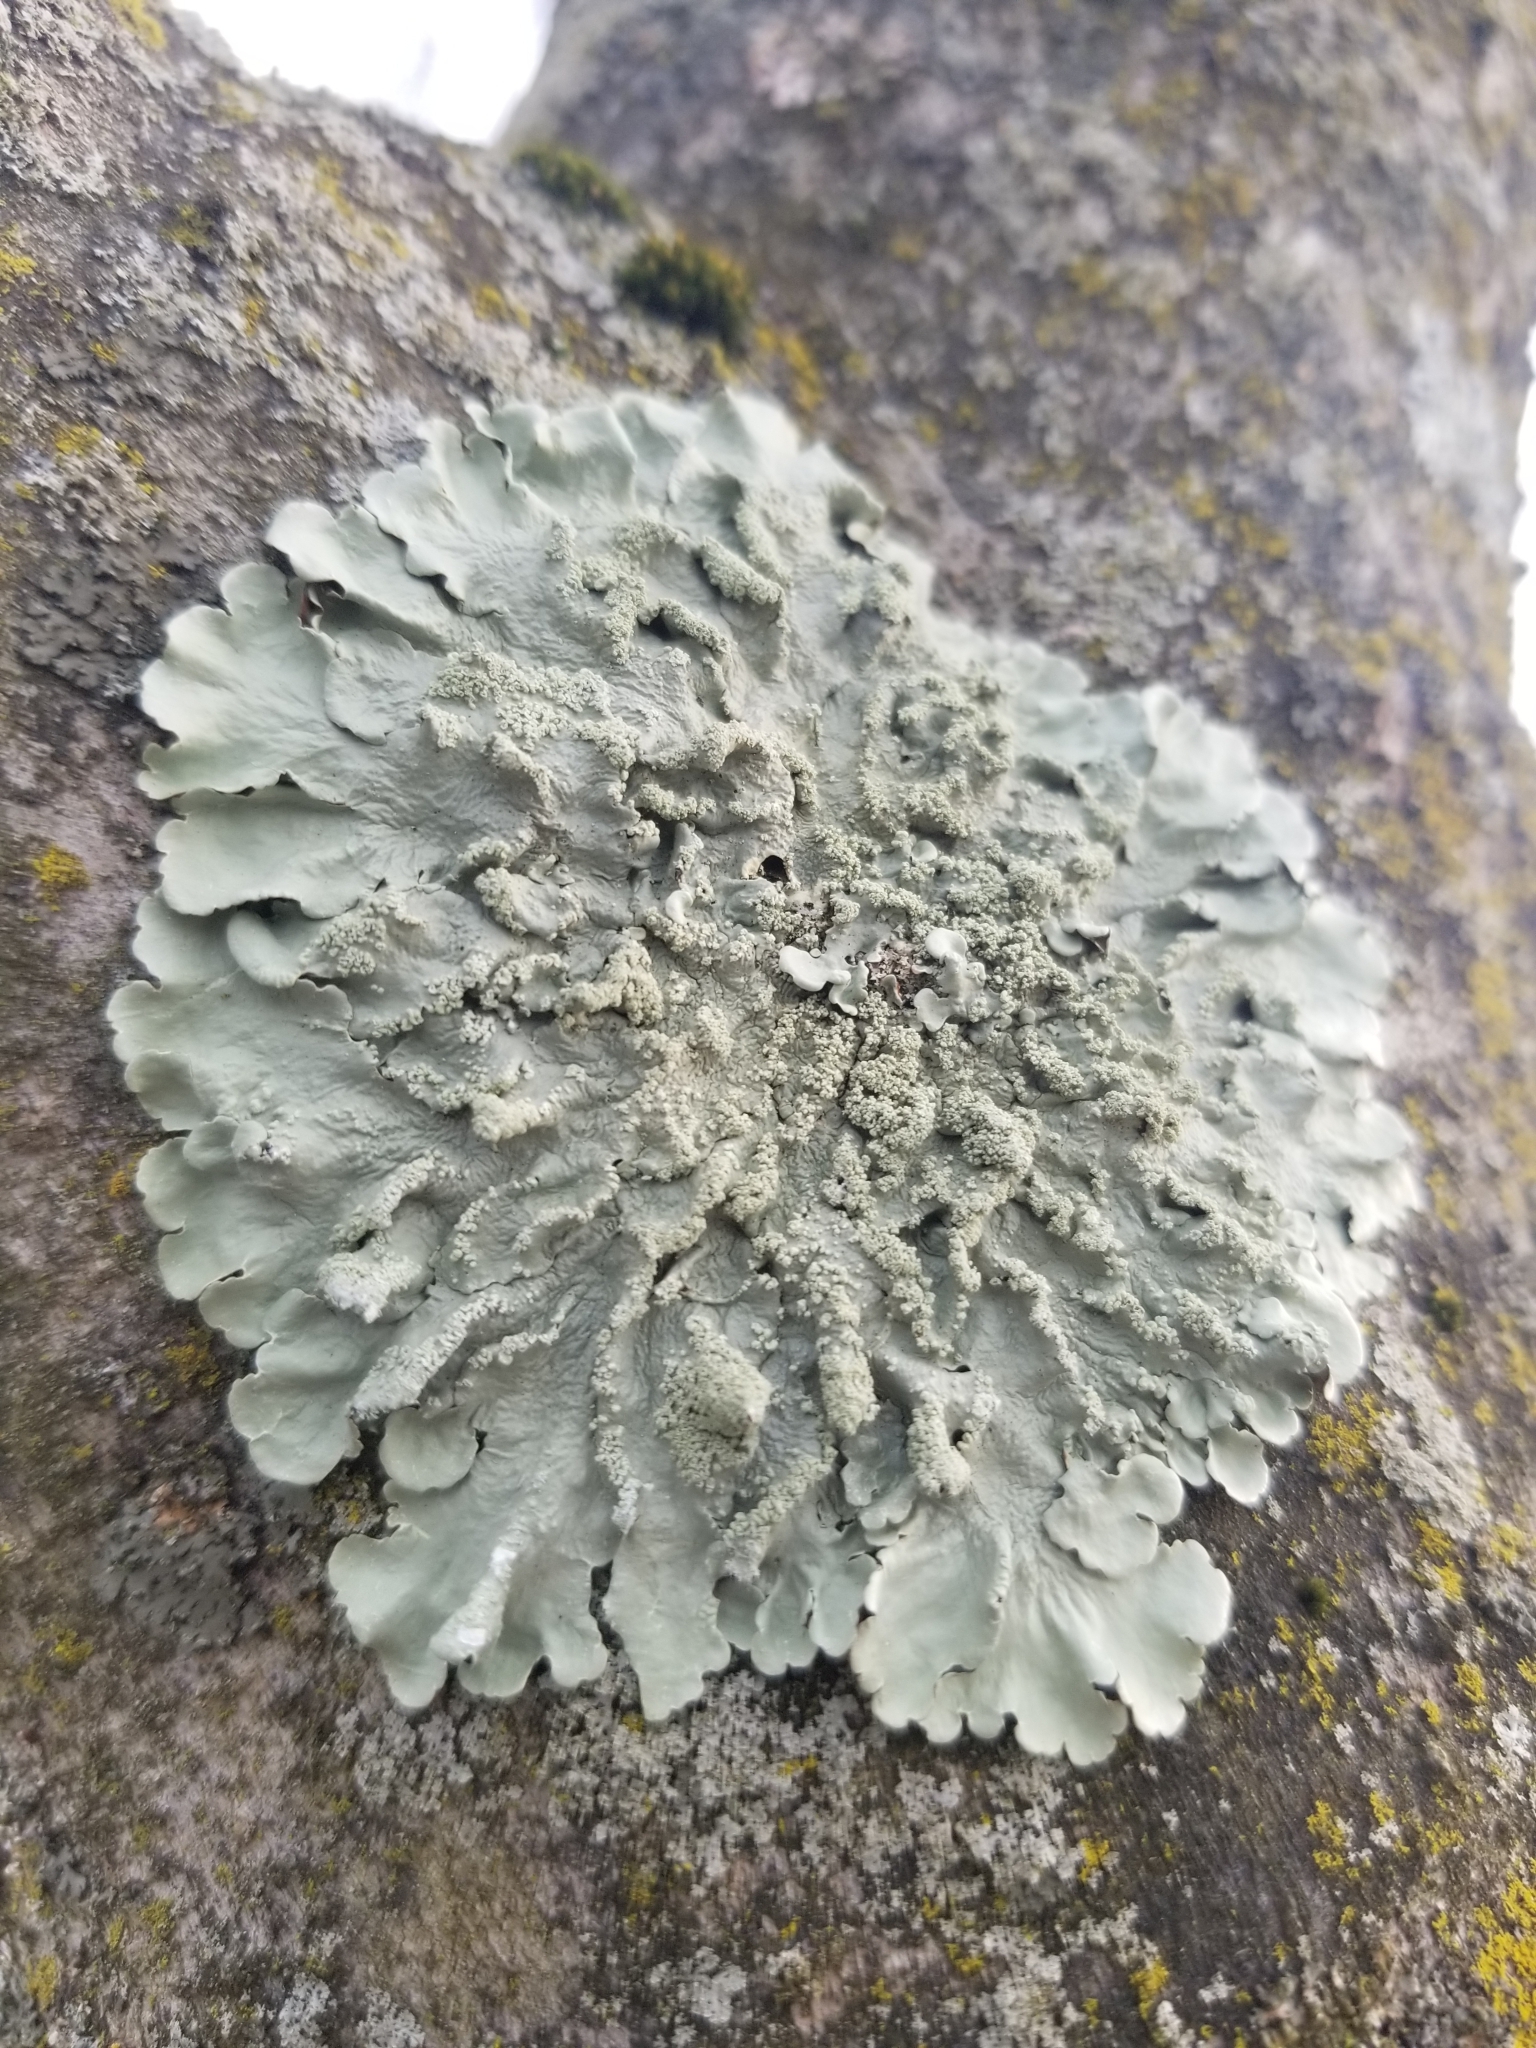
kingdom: Fungi
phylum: Ascomycota
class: Lecanoromycetes
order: Lecanorales
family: Parmeliaceae
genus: Flavoparmelia
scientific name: Flavoparmelia caperata
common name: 40-mile per hour lichen
